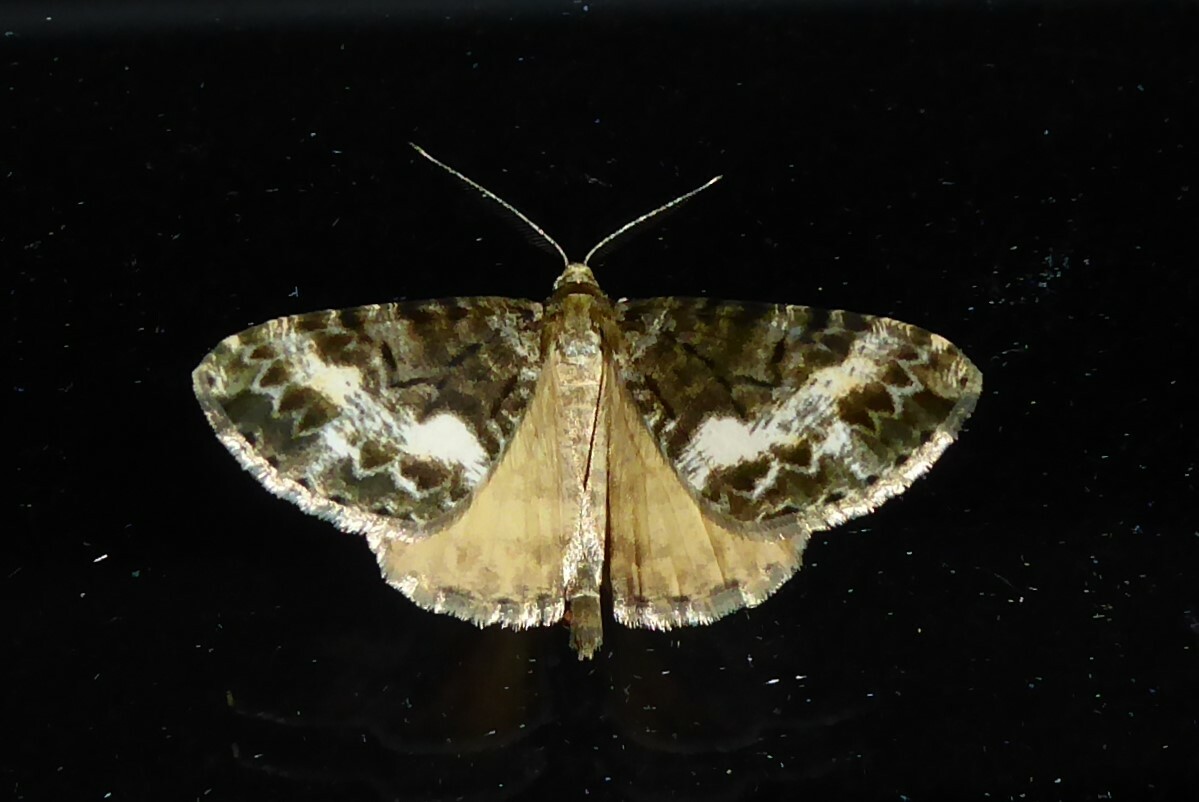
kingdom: Animalia
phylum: Arthropoda
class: Insecta
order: Lepidoptera
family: Geometridae
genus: Pseudocoremia
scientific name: Pseudocoremia lactiflua
